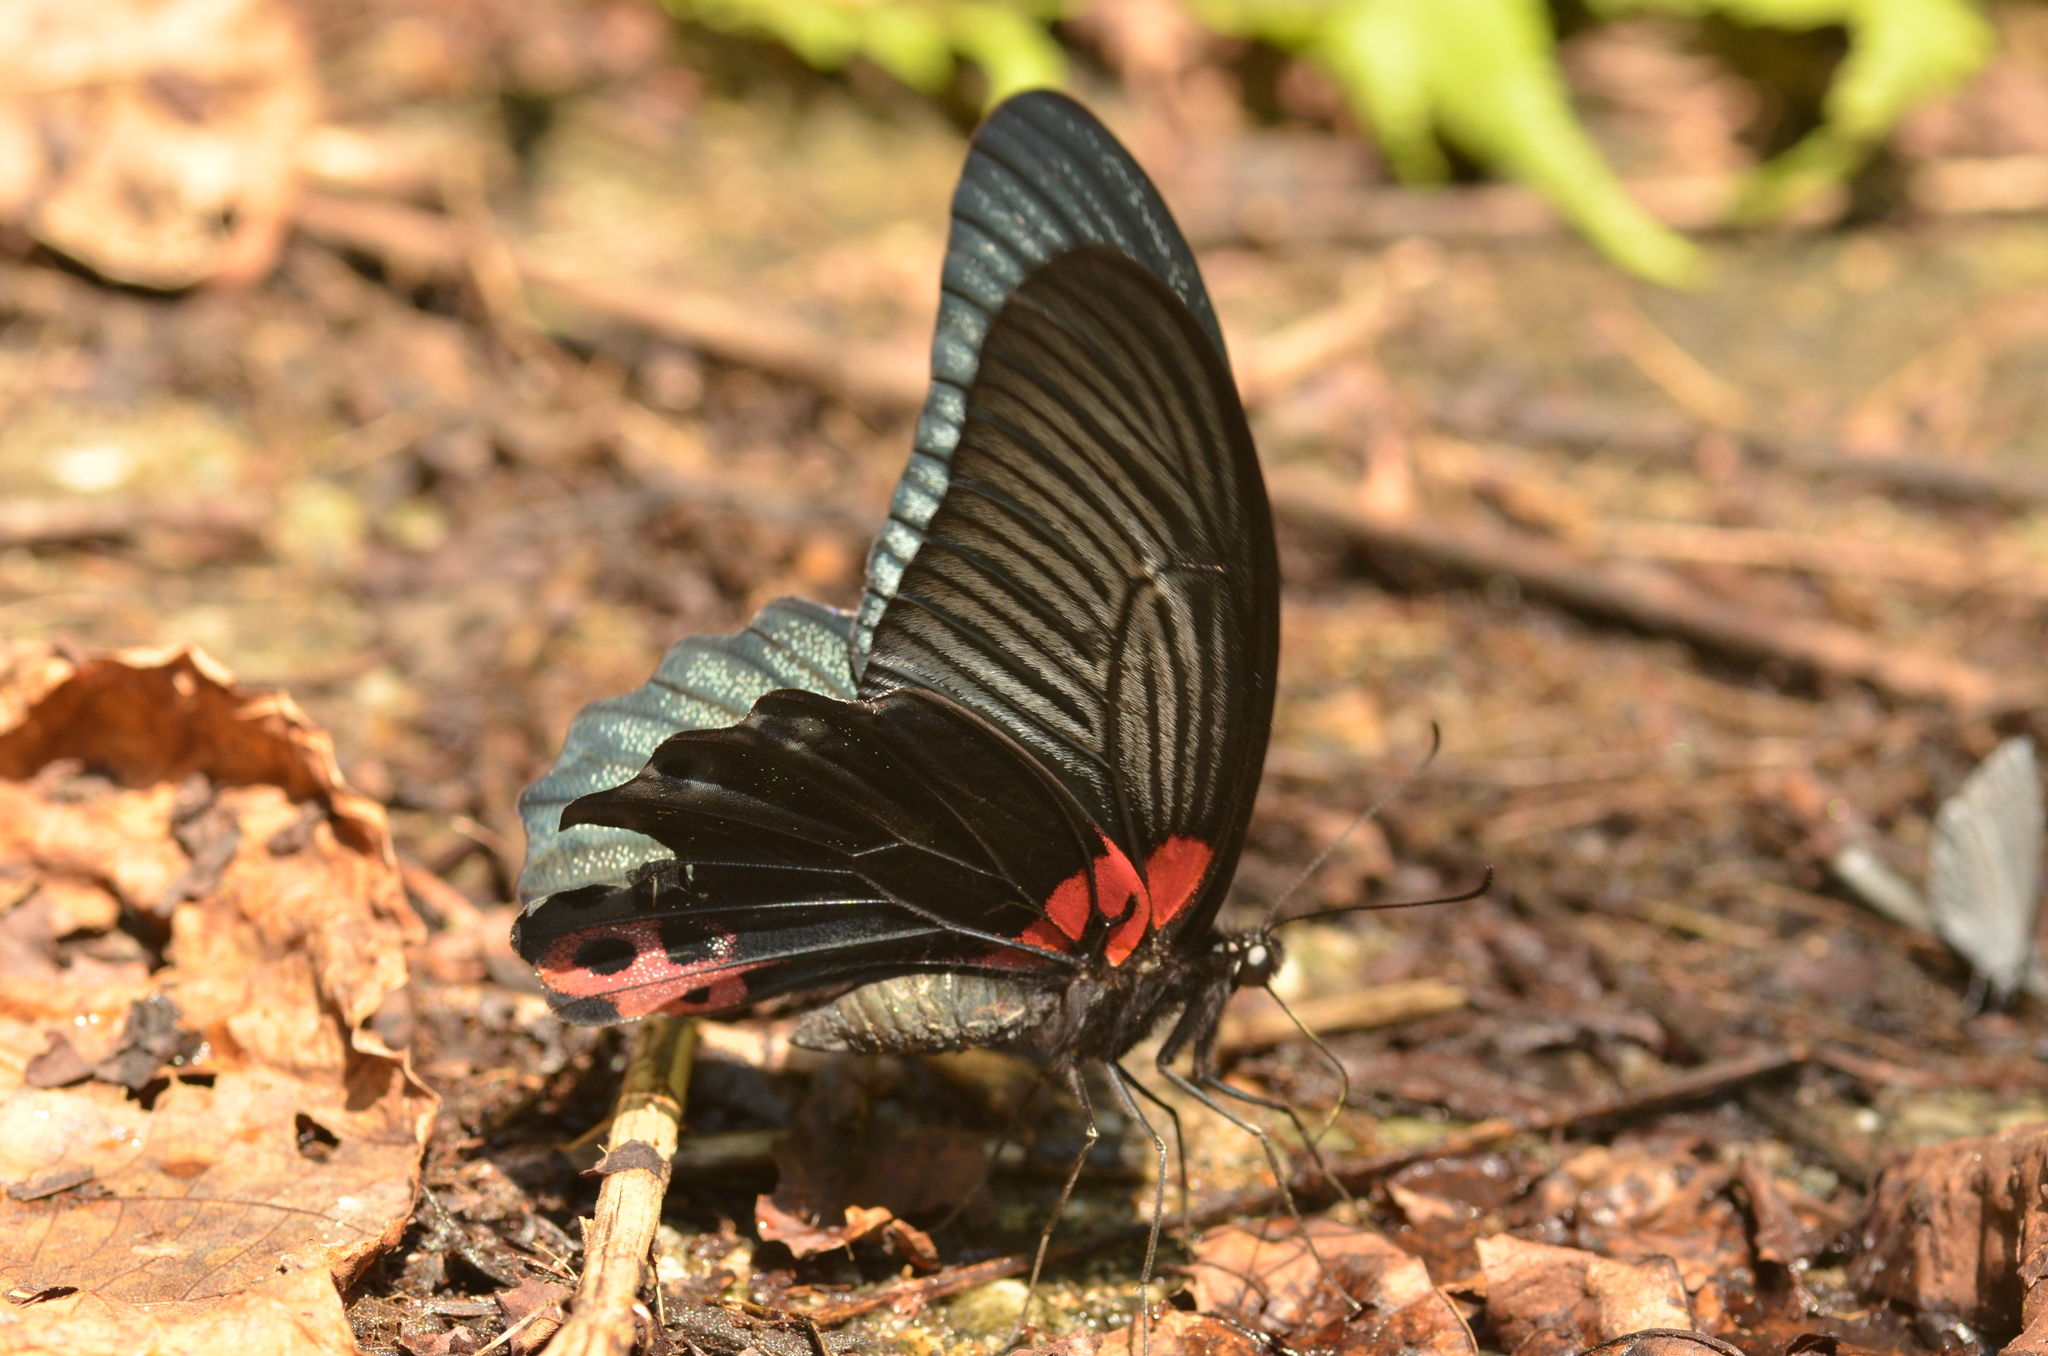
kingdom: Animalia
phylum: Arthropoda
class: Insecta
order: Lepidoptera
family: Papilionidae
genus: Papilio
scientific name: Papilio memnon
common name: Great mormon
